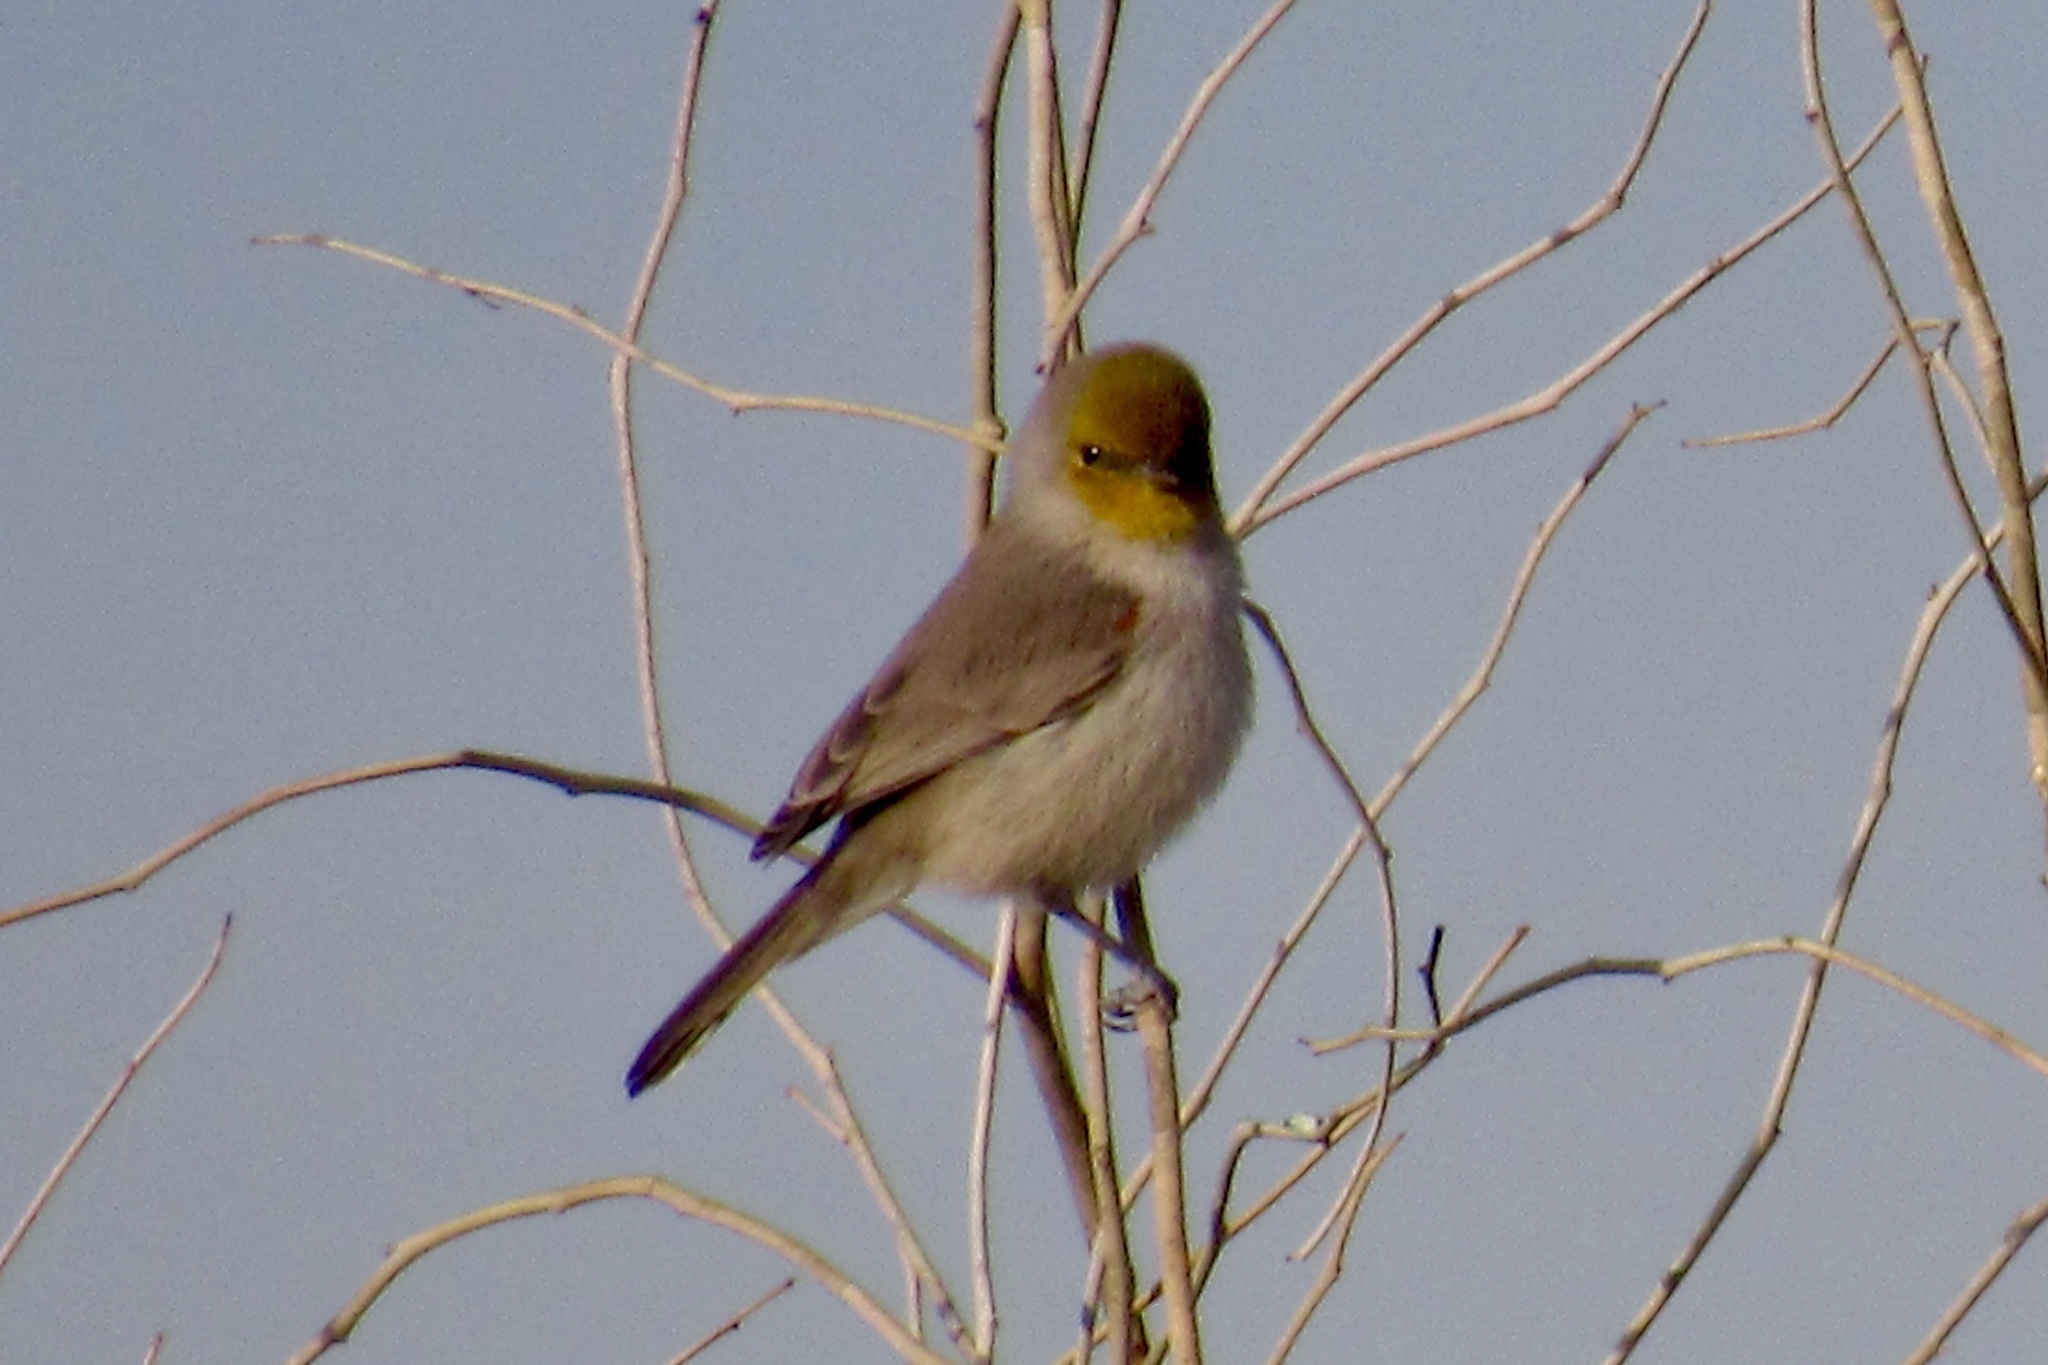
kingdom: Animalia
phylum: Chordata
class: Aves
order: Passeriformes
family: Remizidae
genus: Auriparus
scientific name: Auriparus flaviceps
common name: Verdin
